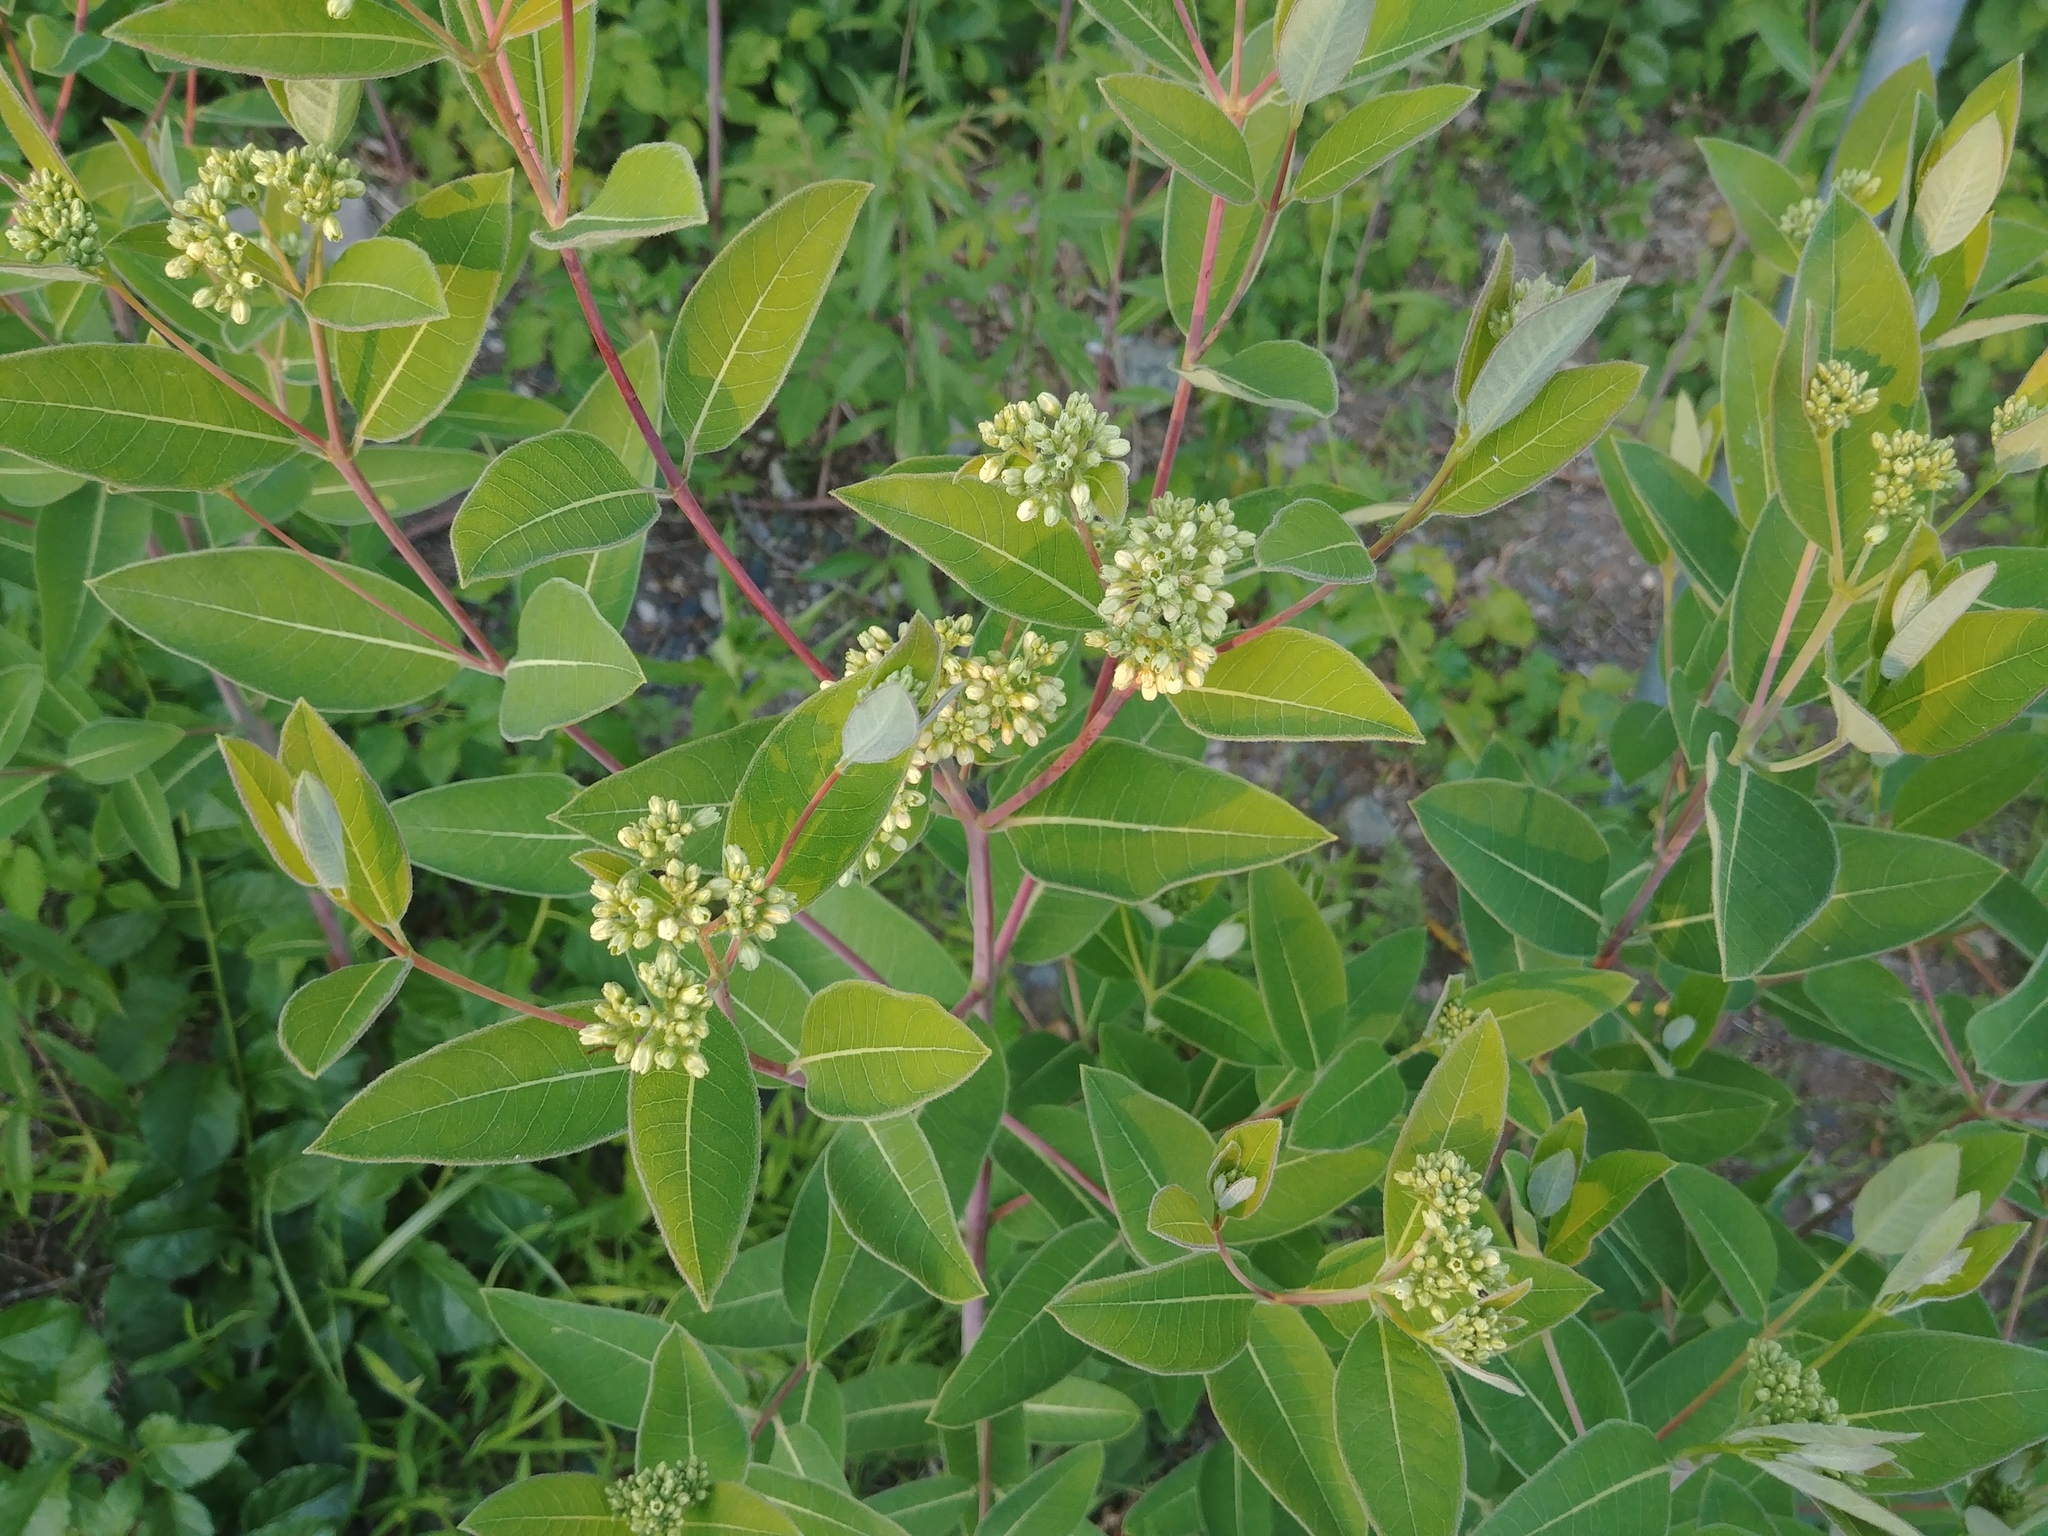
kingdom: Plantae
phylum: Tracheophyta
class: Magnoliopsida
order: Gentianales
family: Apocynaceae
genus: Apocynum
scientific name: Apocynum cannabinum
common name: Hemp dogbane
